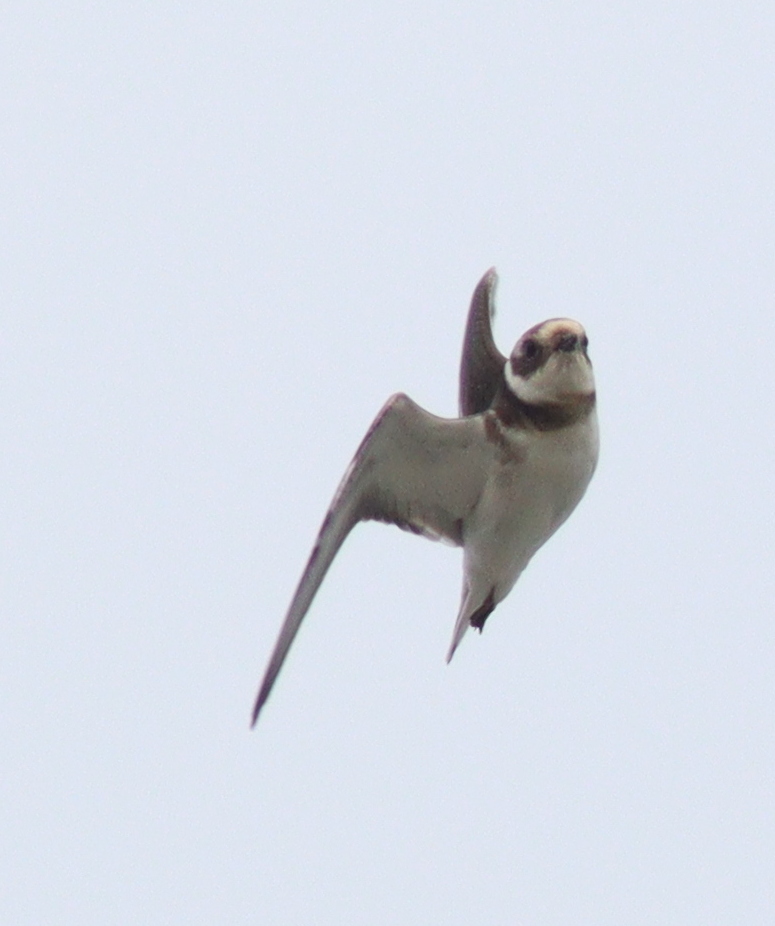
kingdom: Animalia
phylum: Chordata
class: Aves
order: Charadriiformes
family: Charadriidae
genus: Charadrius
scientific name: Charadrius hiaticula
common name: Common ringed plover
